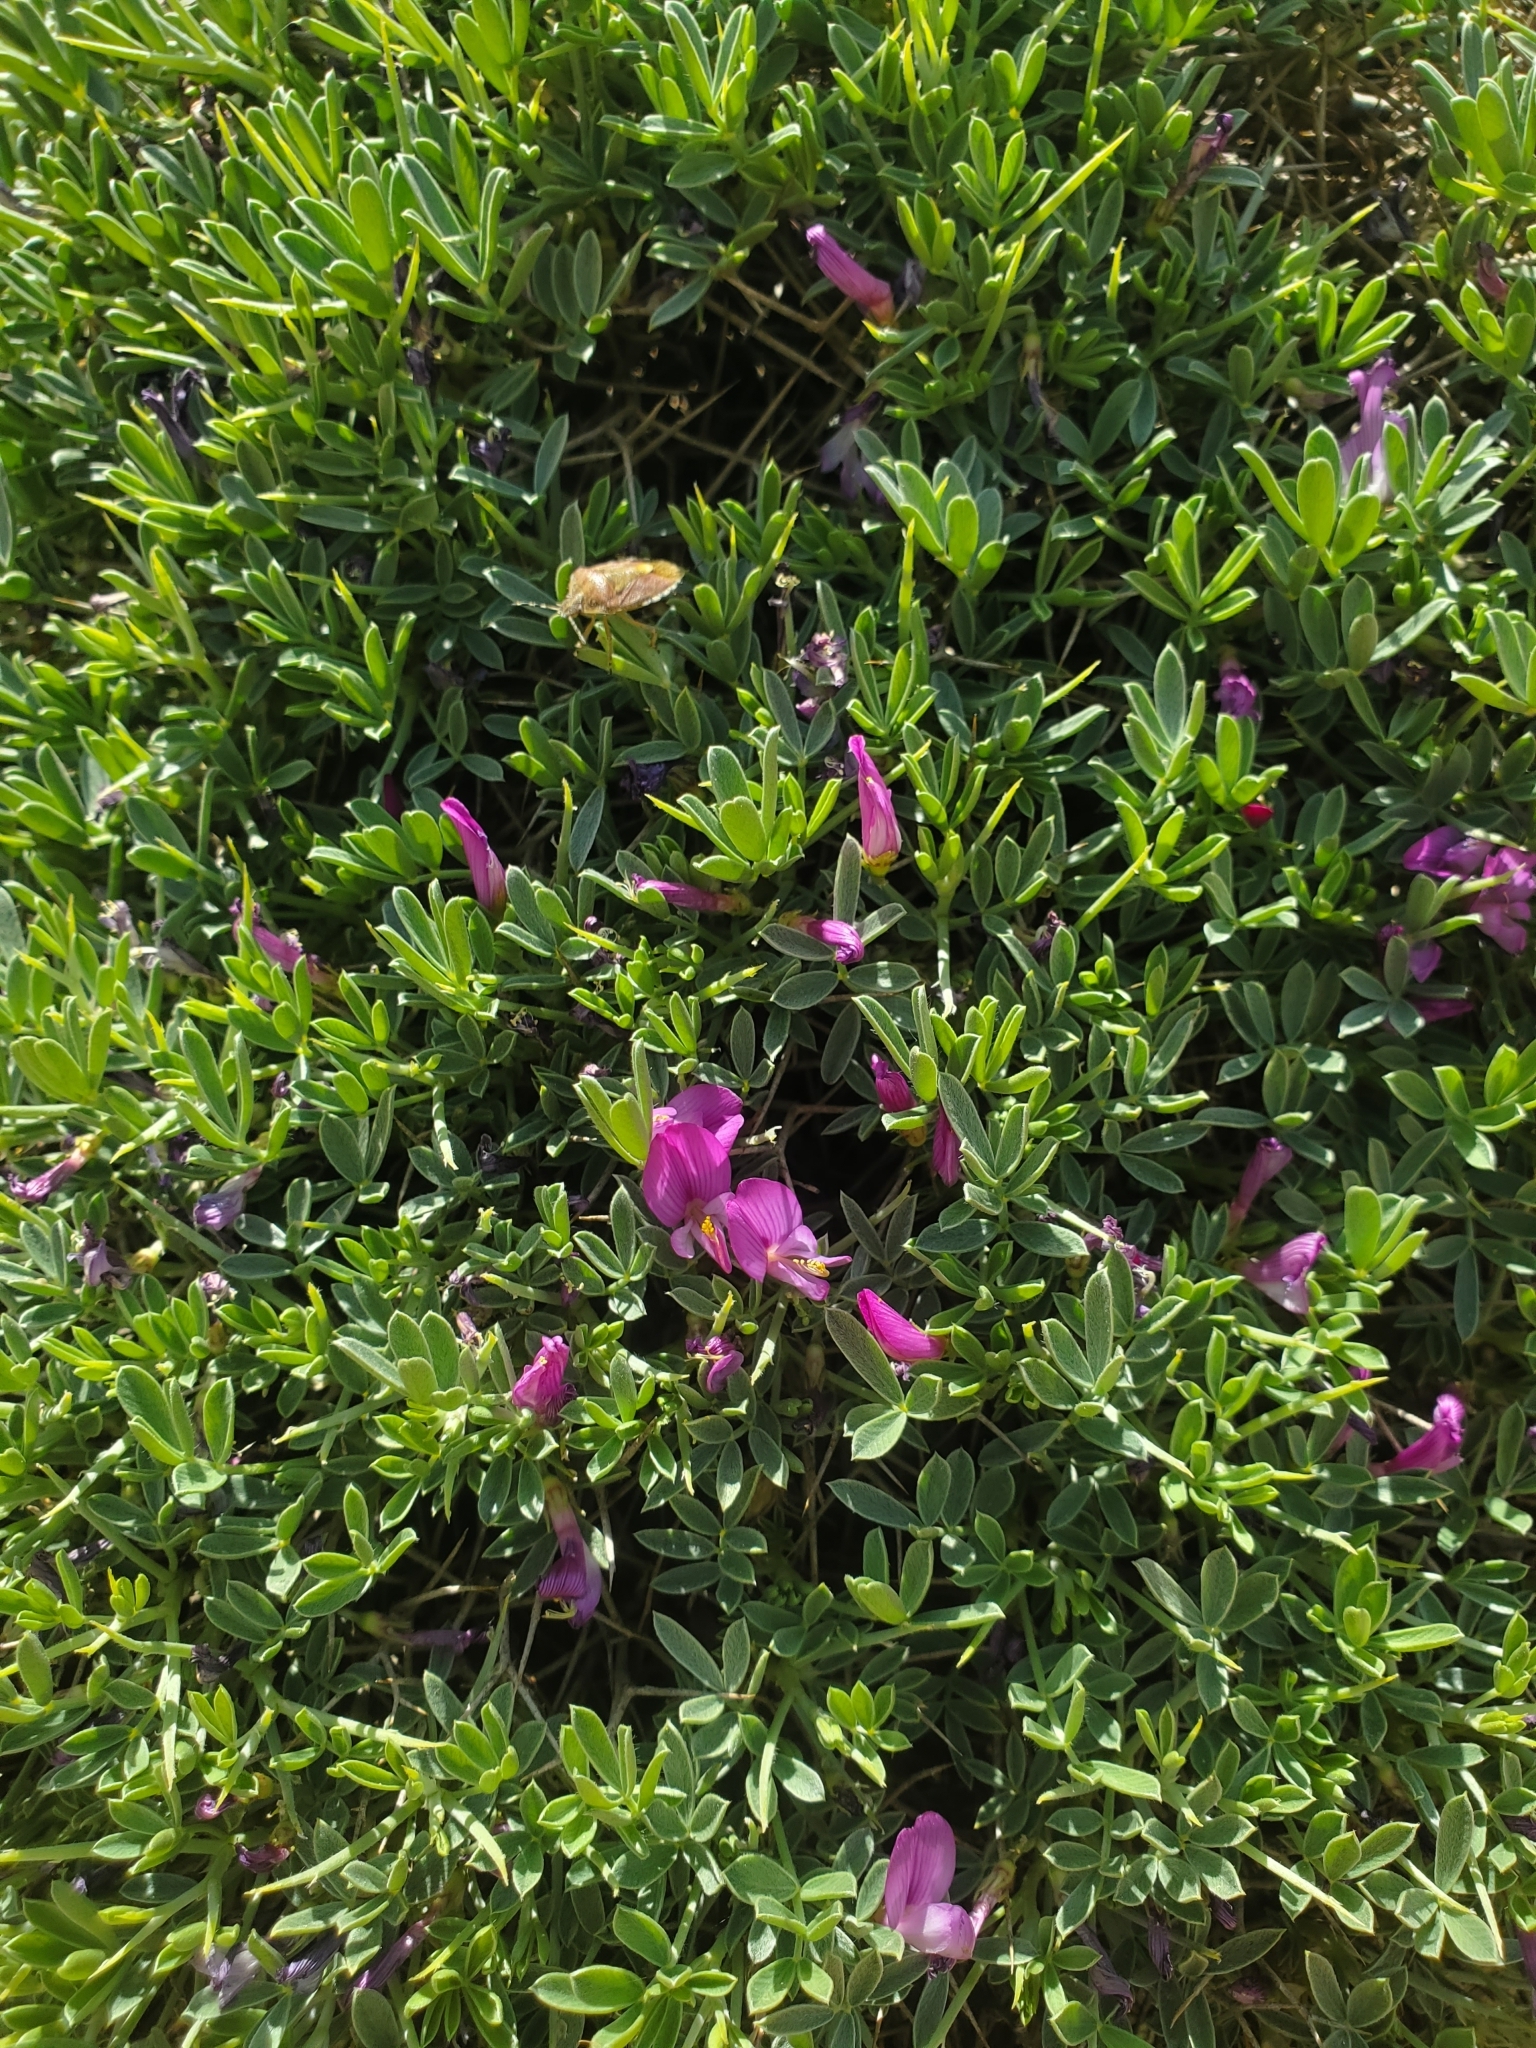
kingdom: Plantae
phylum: Tracheophyta
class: Magnoliopsida
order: Fabales
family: Fabaceae
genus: Onobrychis
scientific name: Onobrychis cornuta
